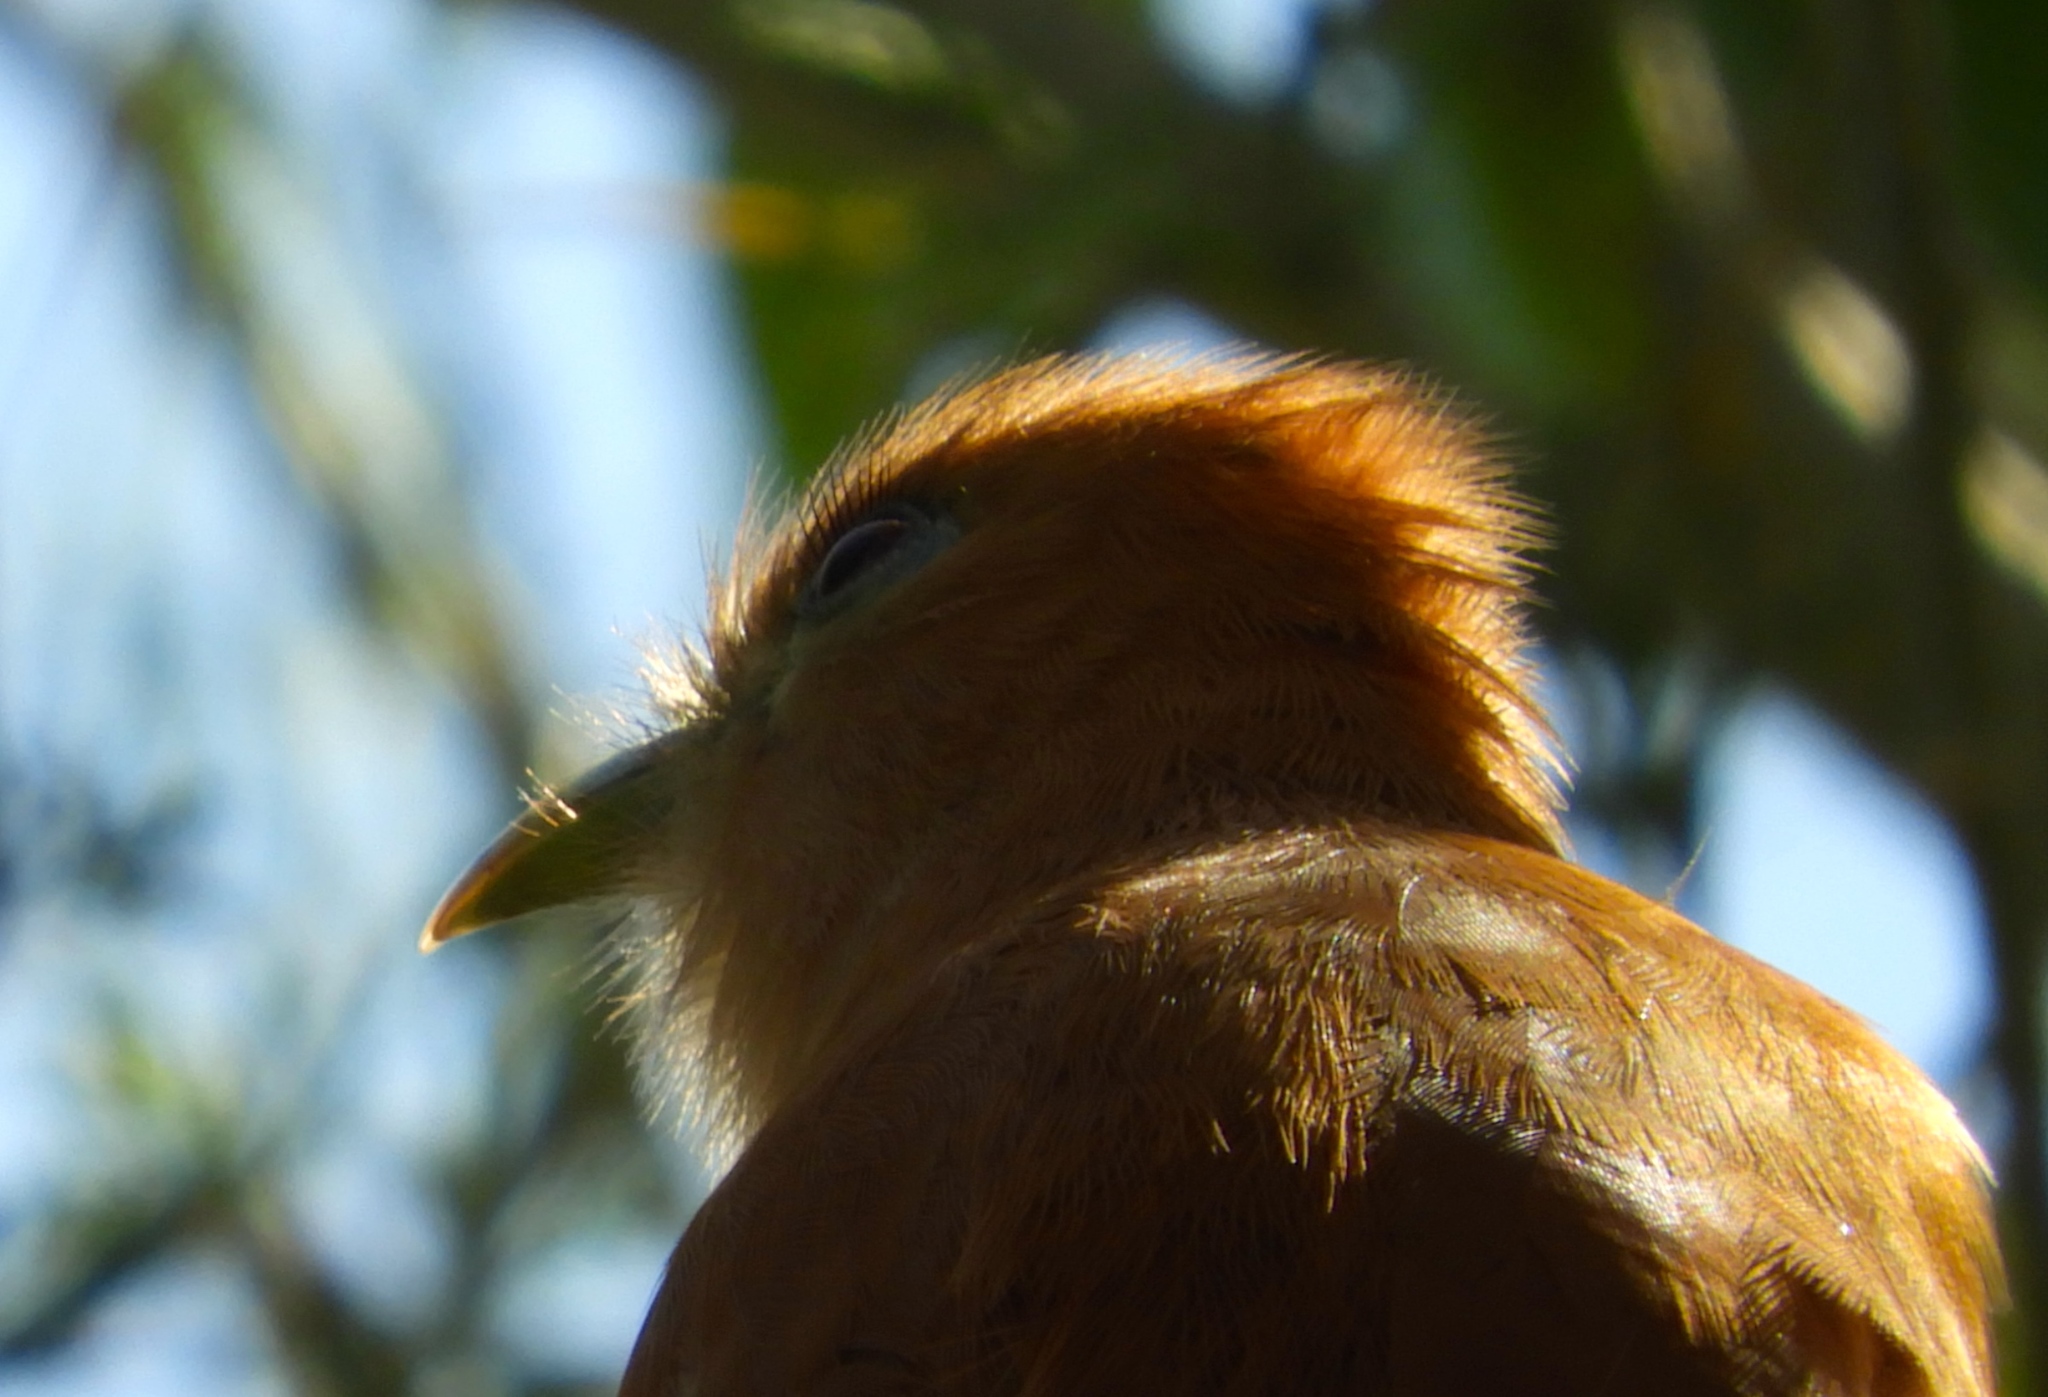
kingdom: Animalia
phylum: Chordata
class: Aves
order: Cuculiformes
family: Cuculidae
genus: Piaya
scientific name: Piaya cayana
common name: Squirrel cuckoo
